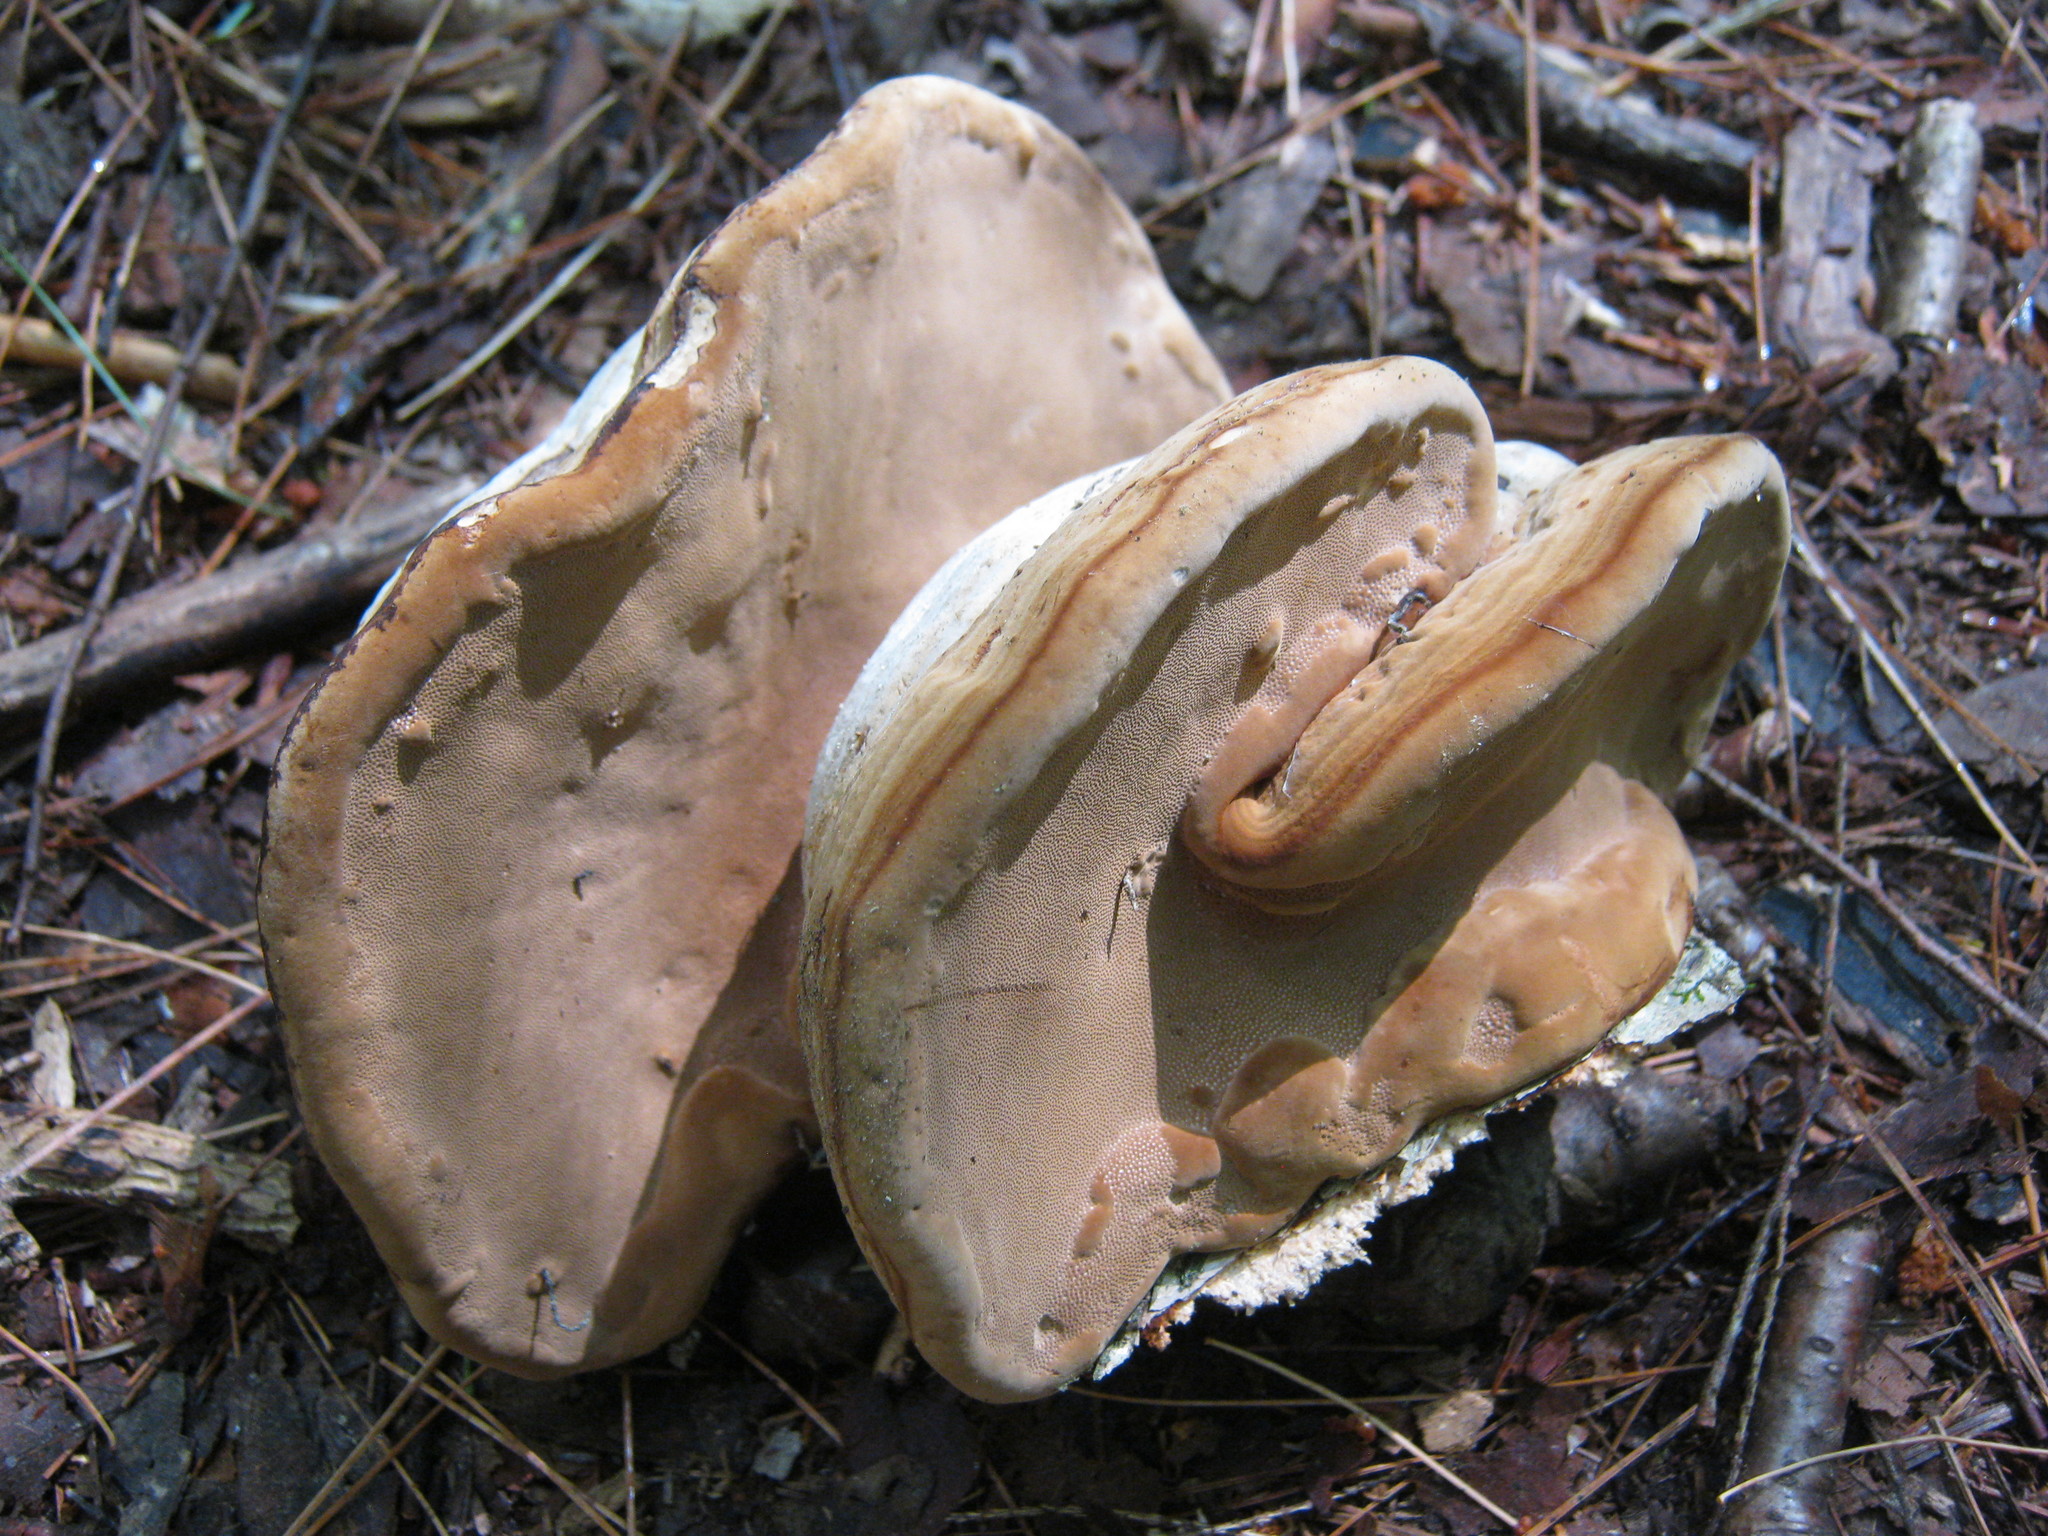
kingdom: Fungi
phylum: Basidiomycota
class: Agaricomycetes
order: Polyporales
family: Polyporaceae
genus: Fomes
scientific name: Fomes fomentarius
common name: Hoof fungus
